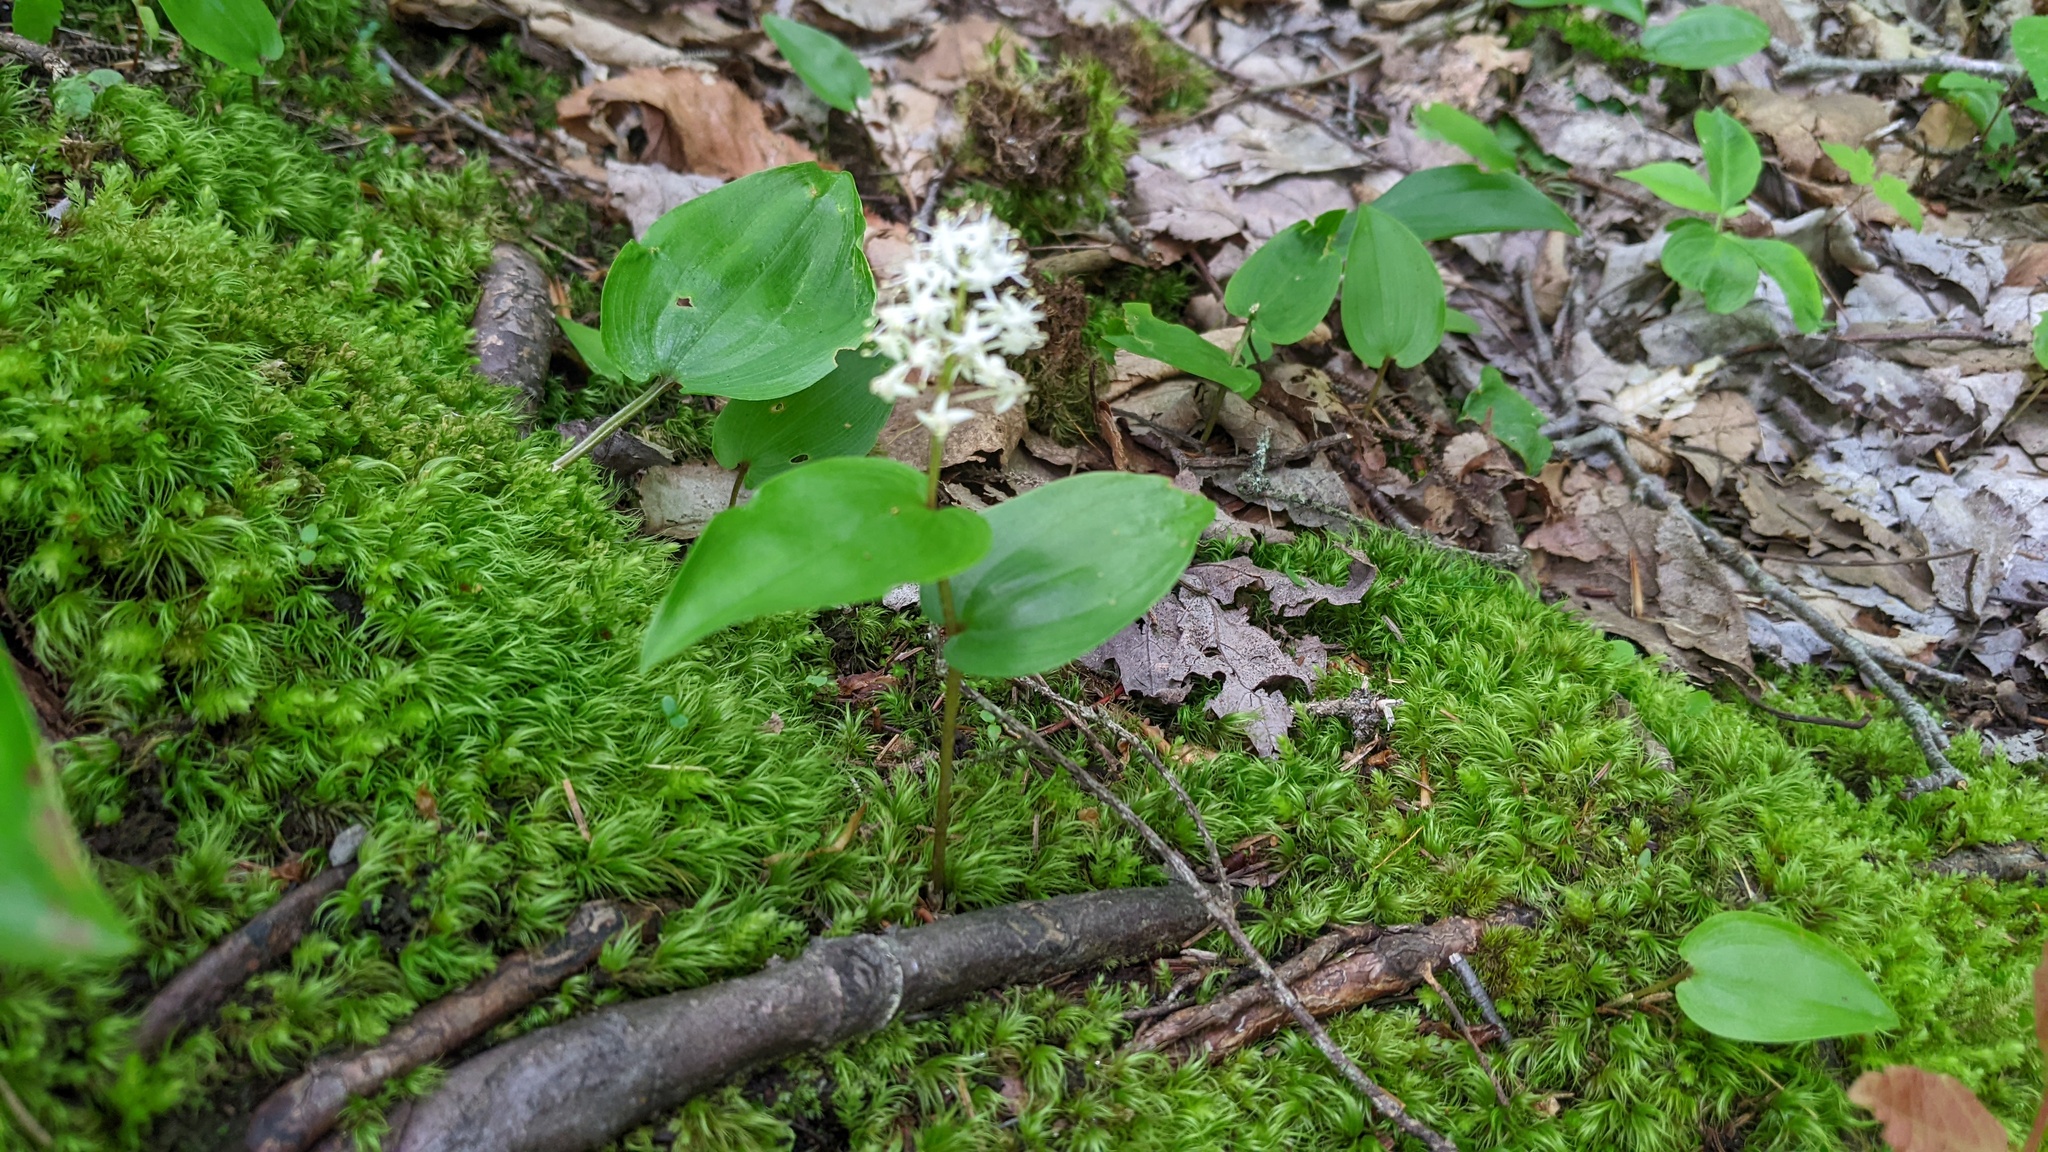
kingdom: Plantae
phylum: Tracheophyta
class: Liliopsida
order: Asparagales
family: Asparagaceae
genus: Maianthemum
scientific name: Maianthemum canadense
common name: False lily-of-the-valley
